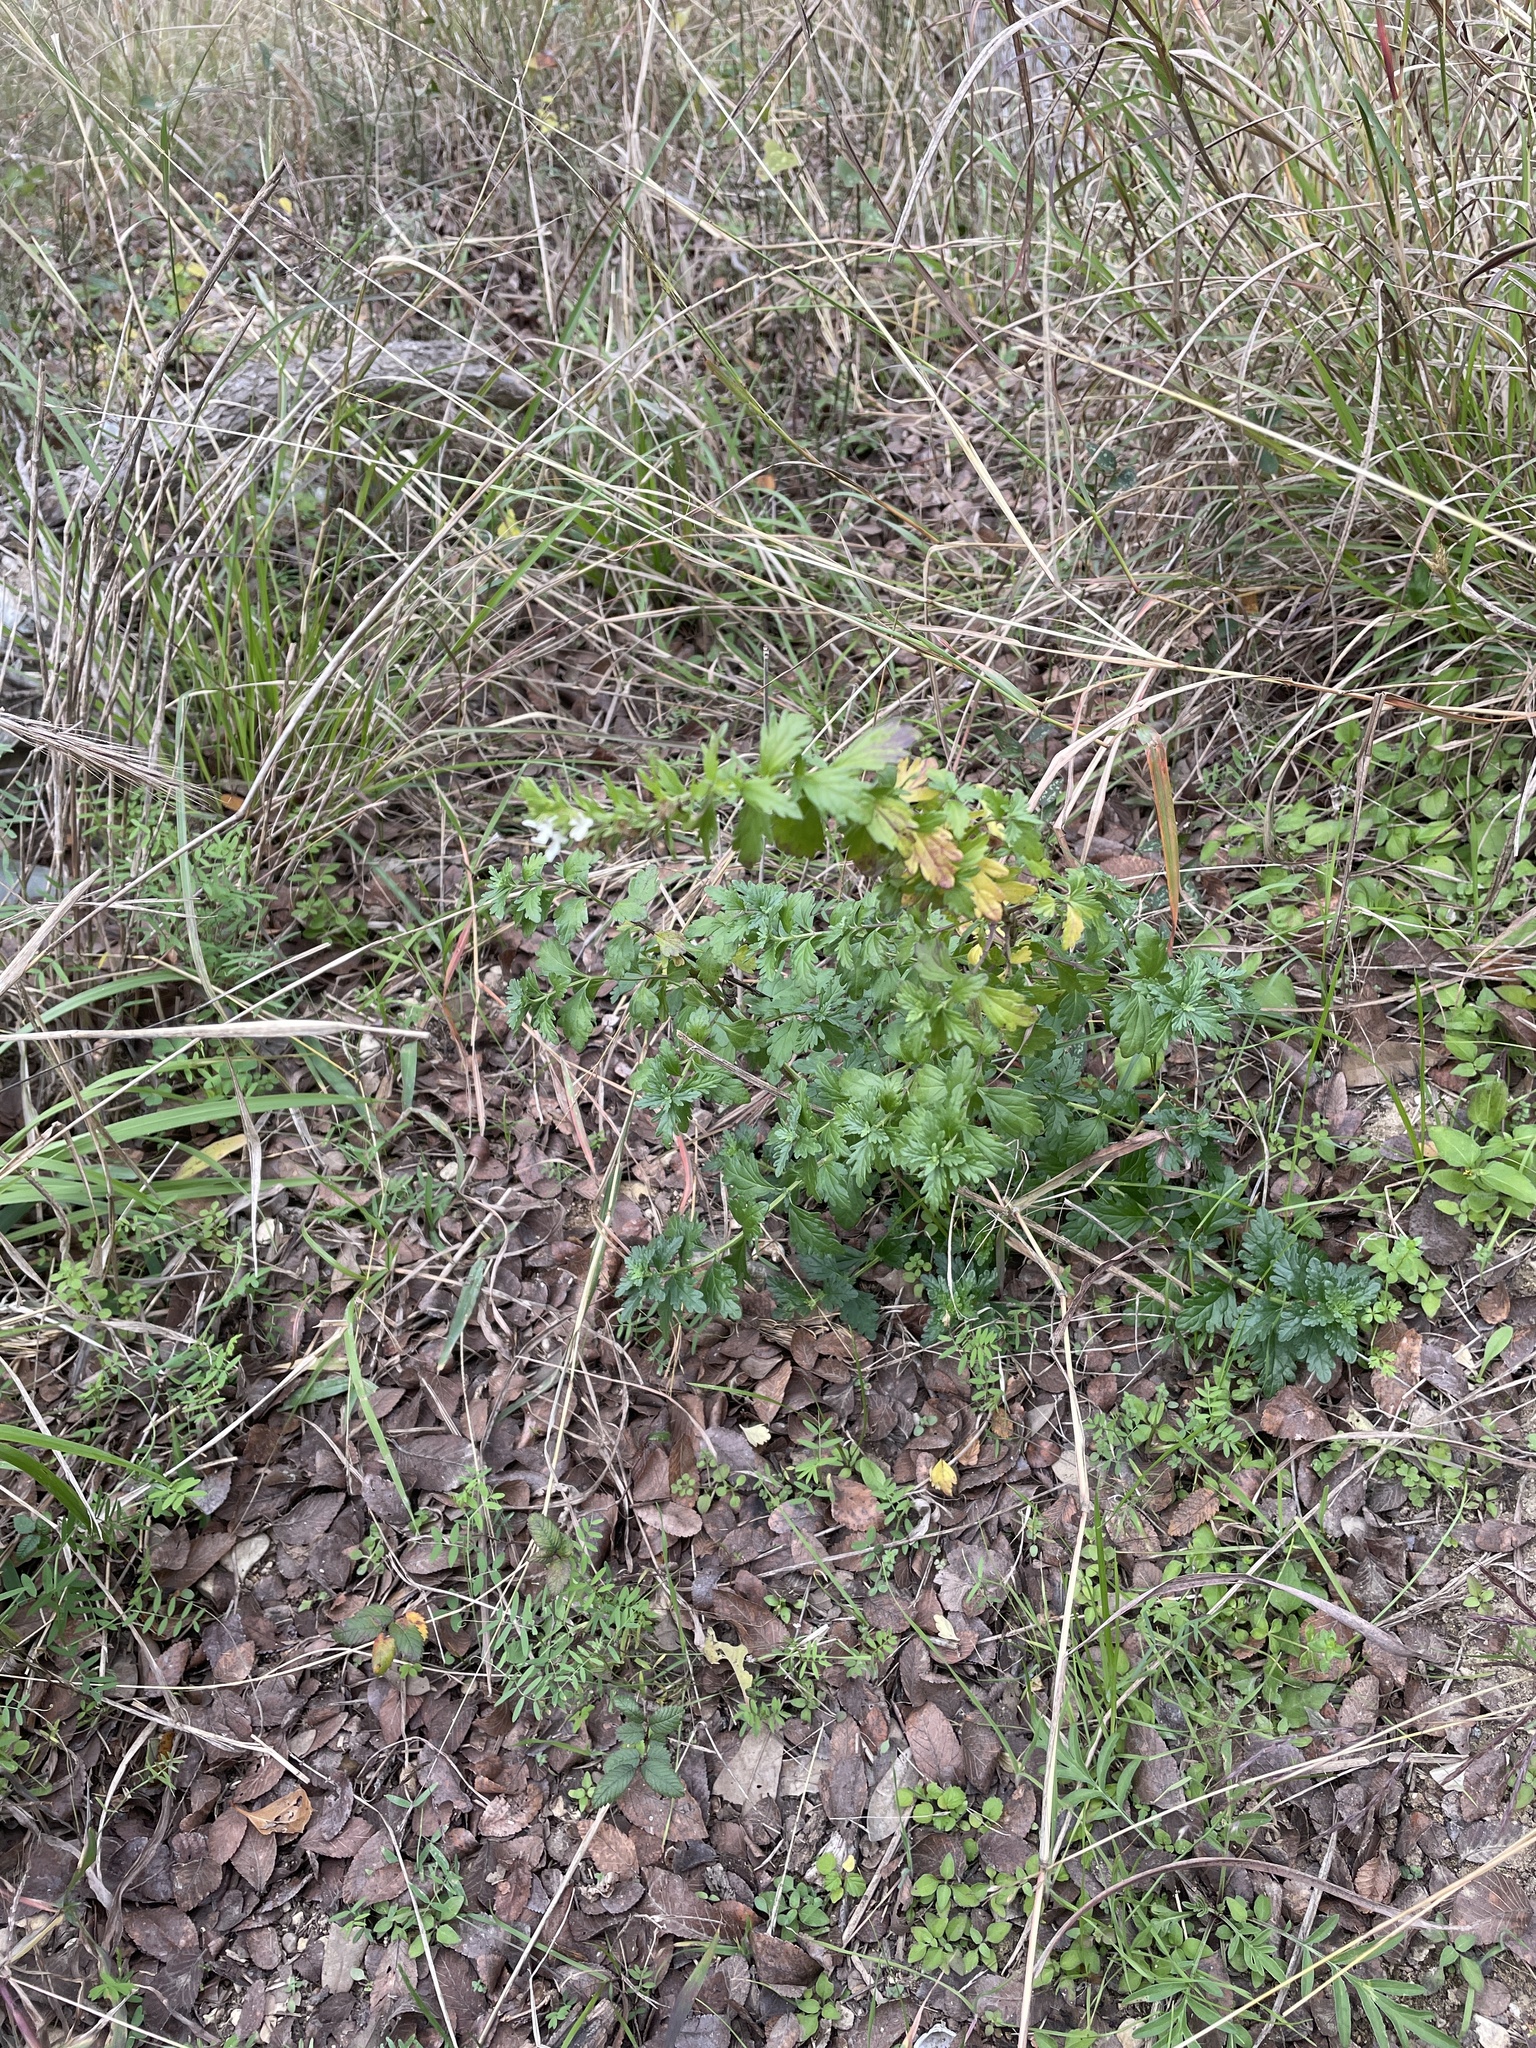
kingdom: Plantae
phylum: Tracheophyta
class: Magnoliopsida
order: Lamiales
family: Lamiaceae
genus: Teucrium
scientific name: Teucrium cubense
